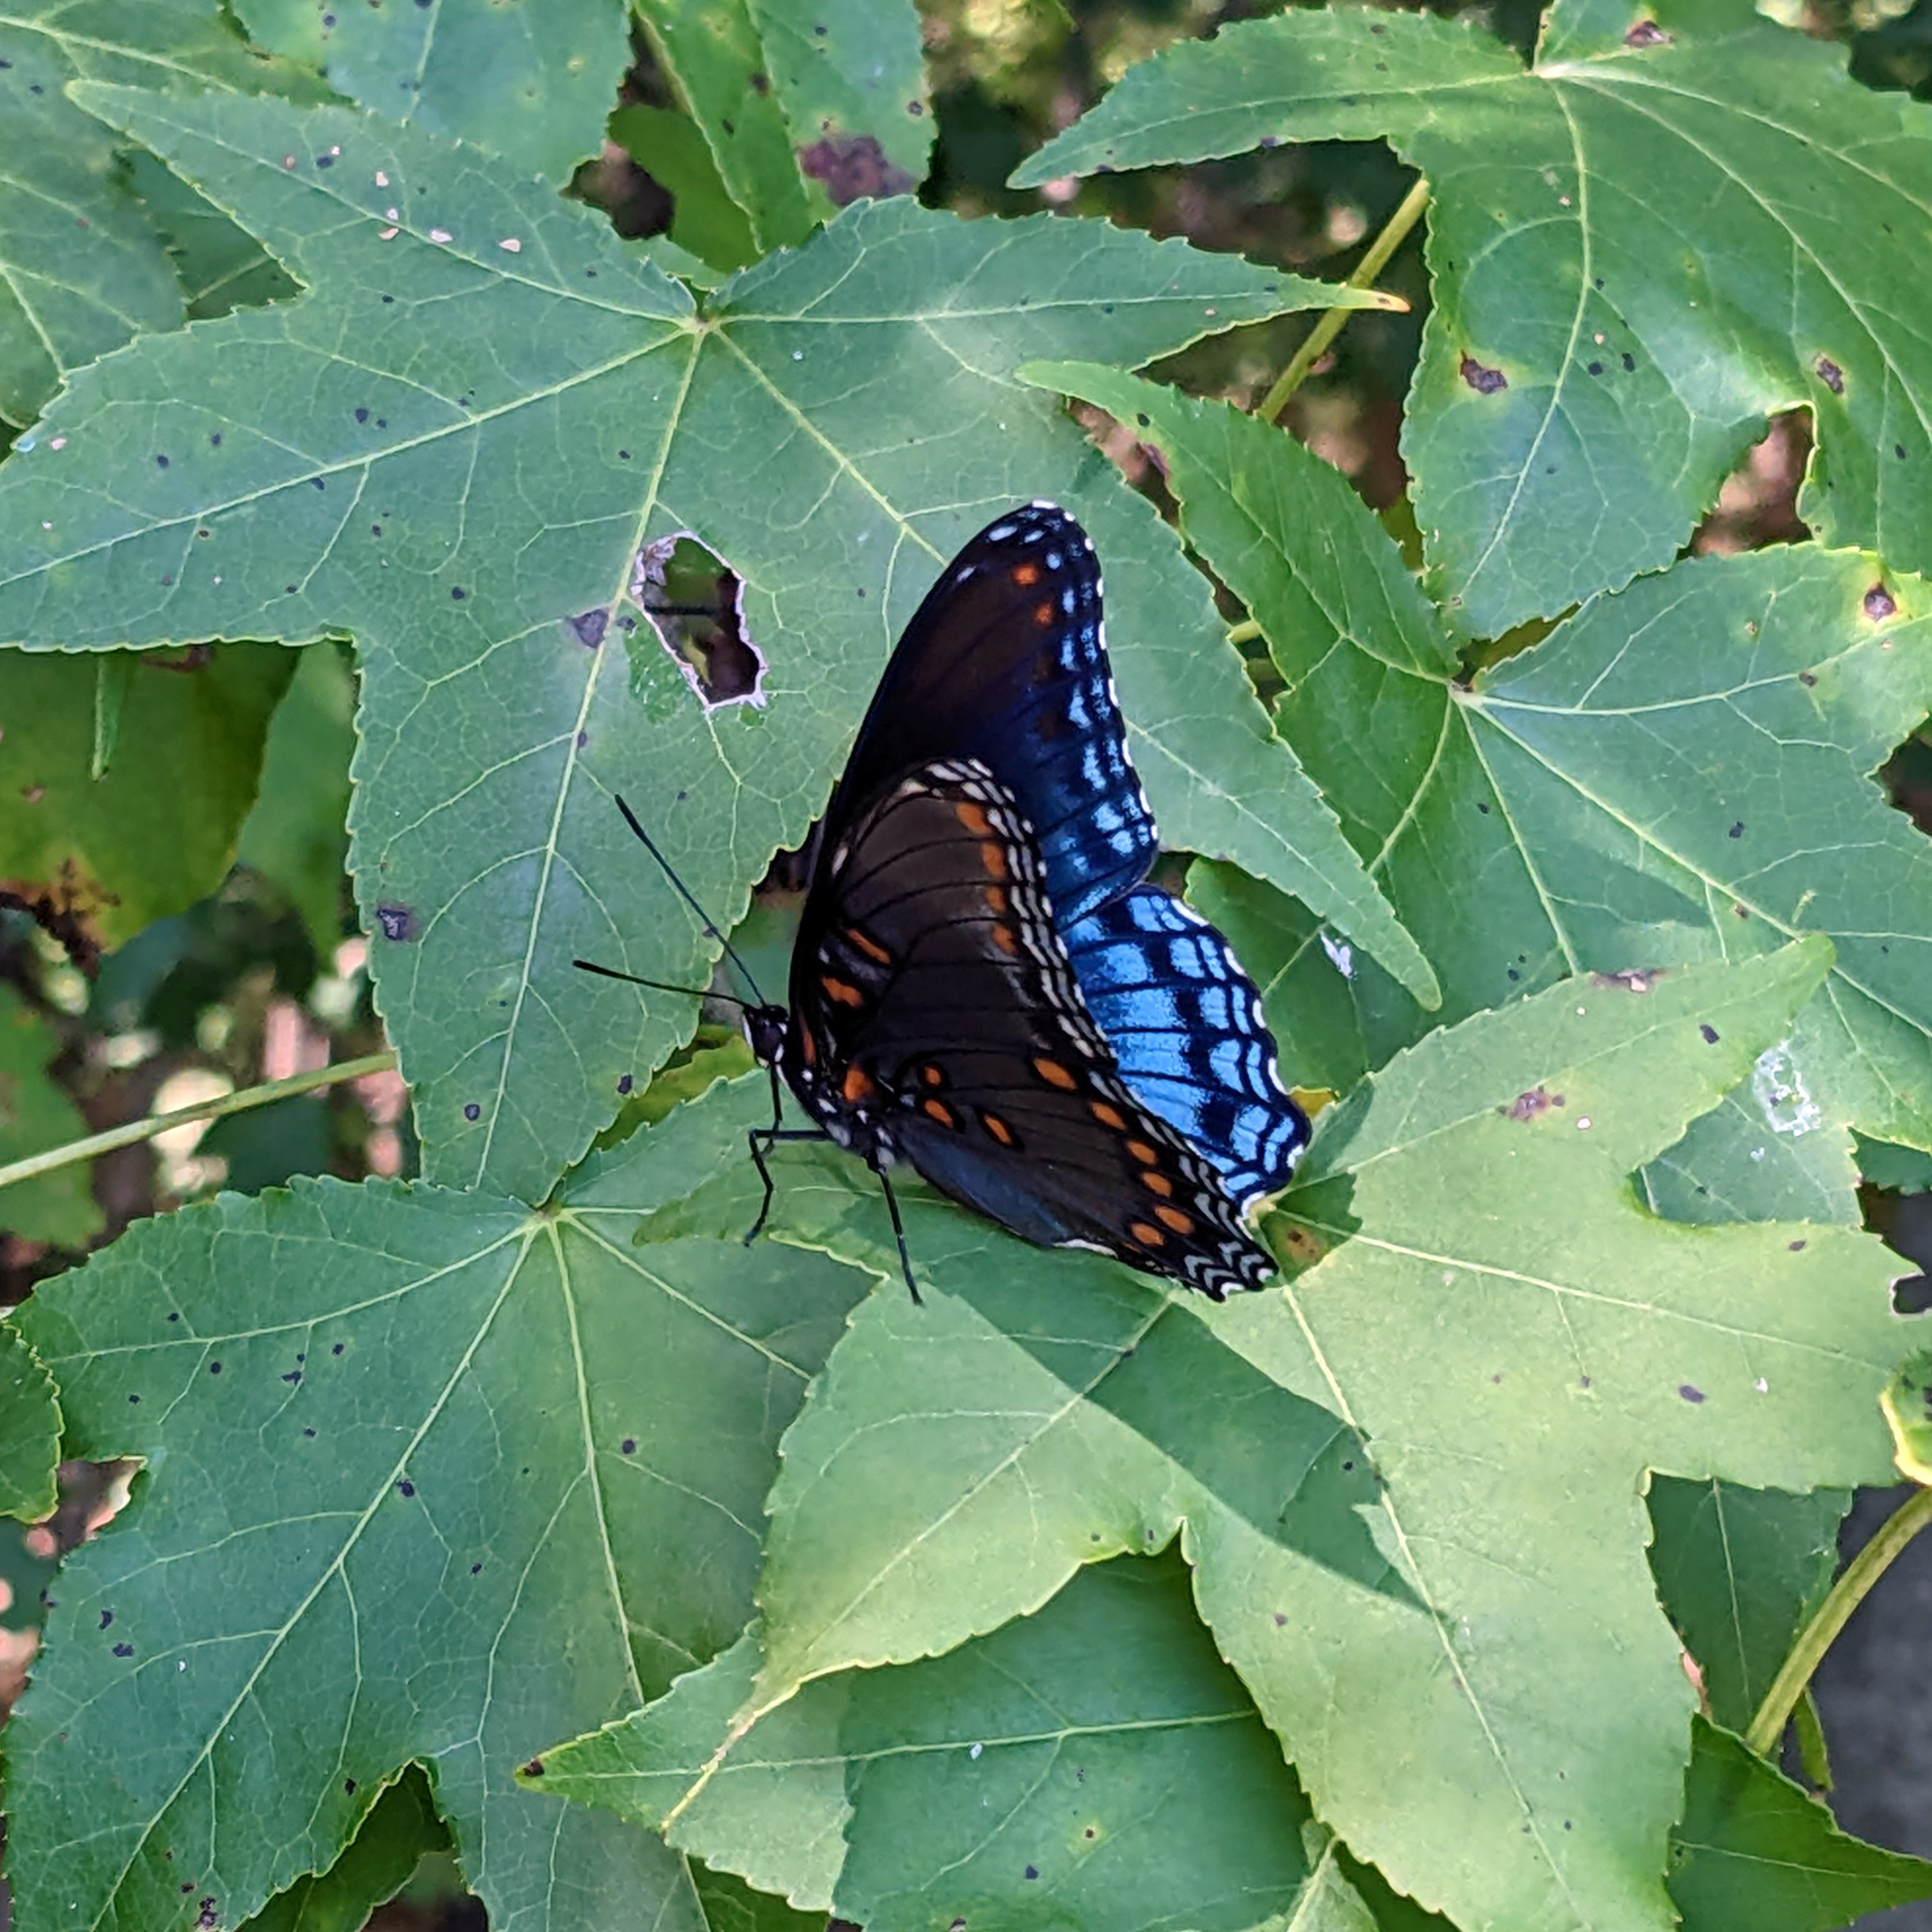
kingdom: Animalia
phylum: Arthropoda
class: Insecta
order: Lepidoptera
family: Nymphalidae
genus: Limenitis
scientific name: Limenitis astyanax
